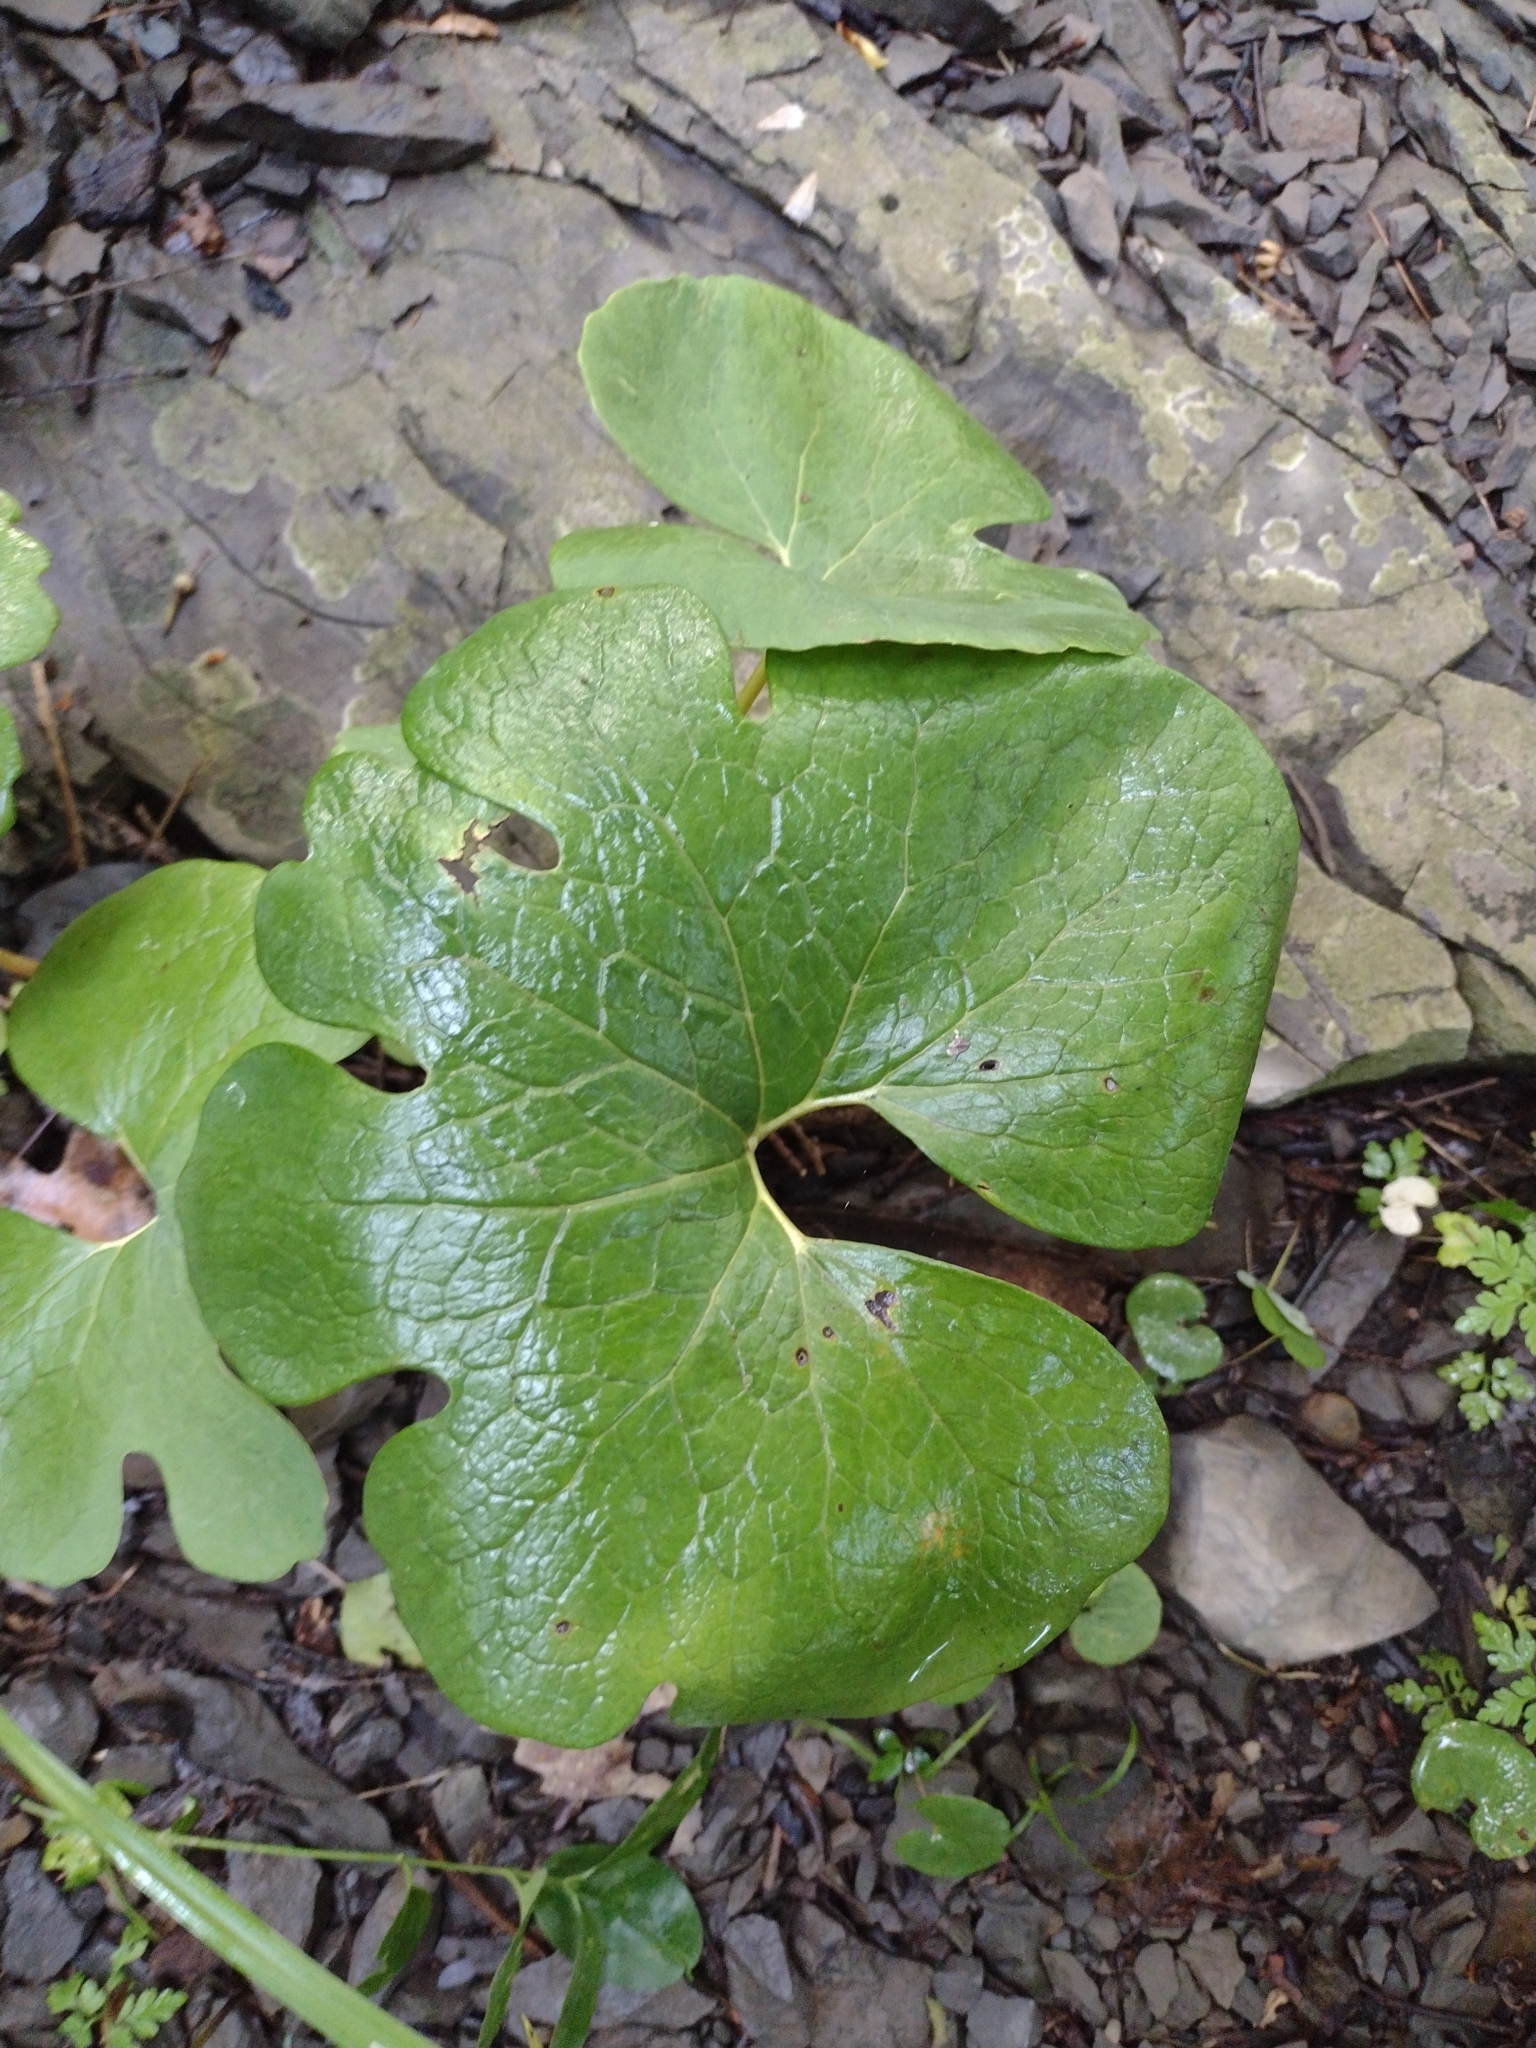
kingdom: Plantae
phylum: Tracheophyta
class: Magnoliopsida
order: Ranunculales
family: Papaveraceae
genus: Sanguinaria
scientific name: Sanguinaria canadensis
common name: Bloodroot
